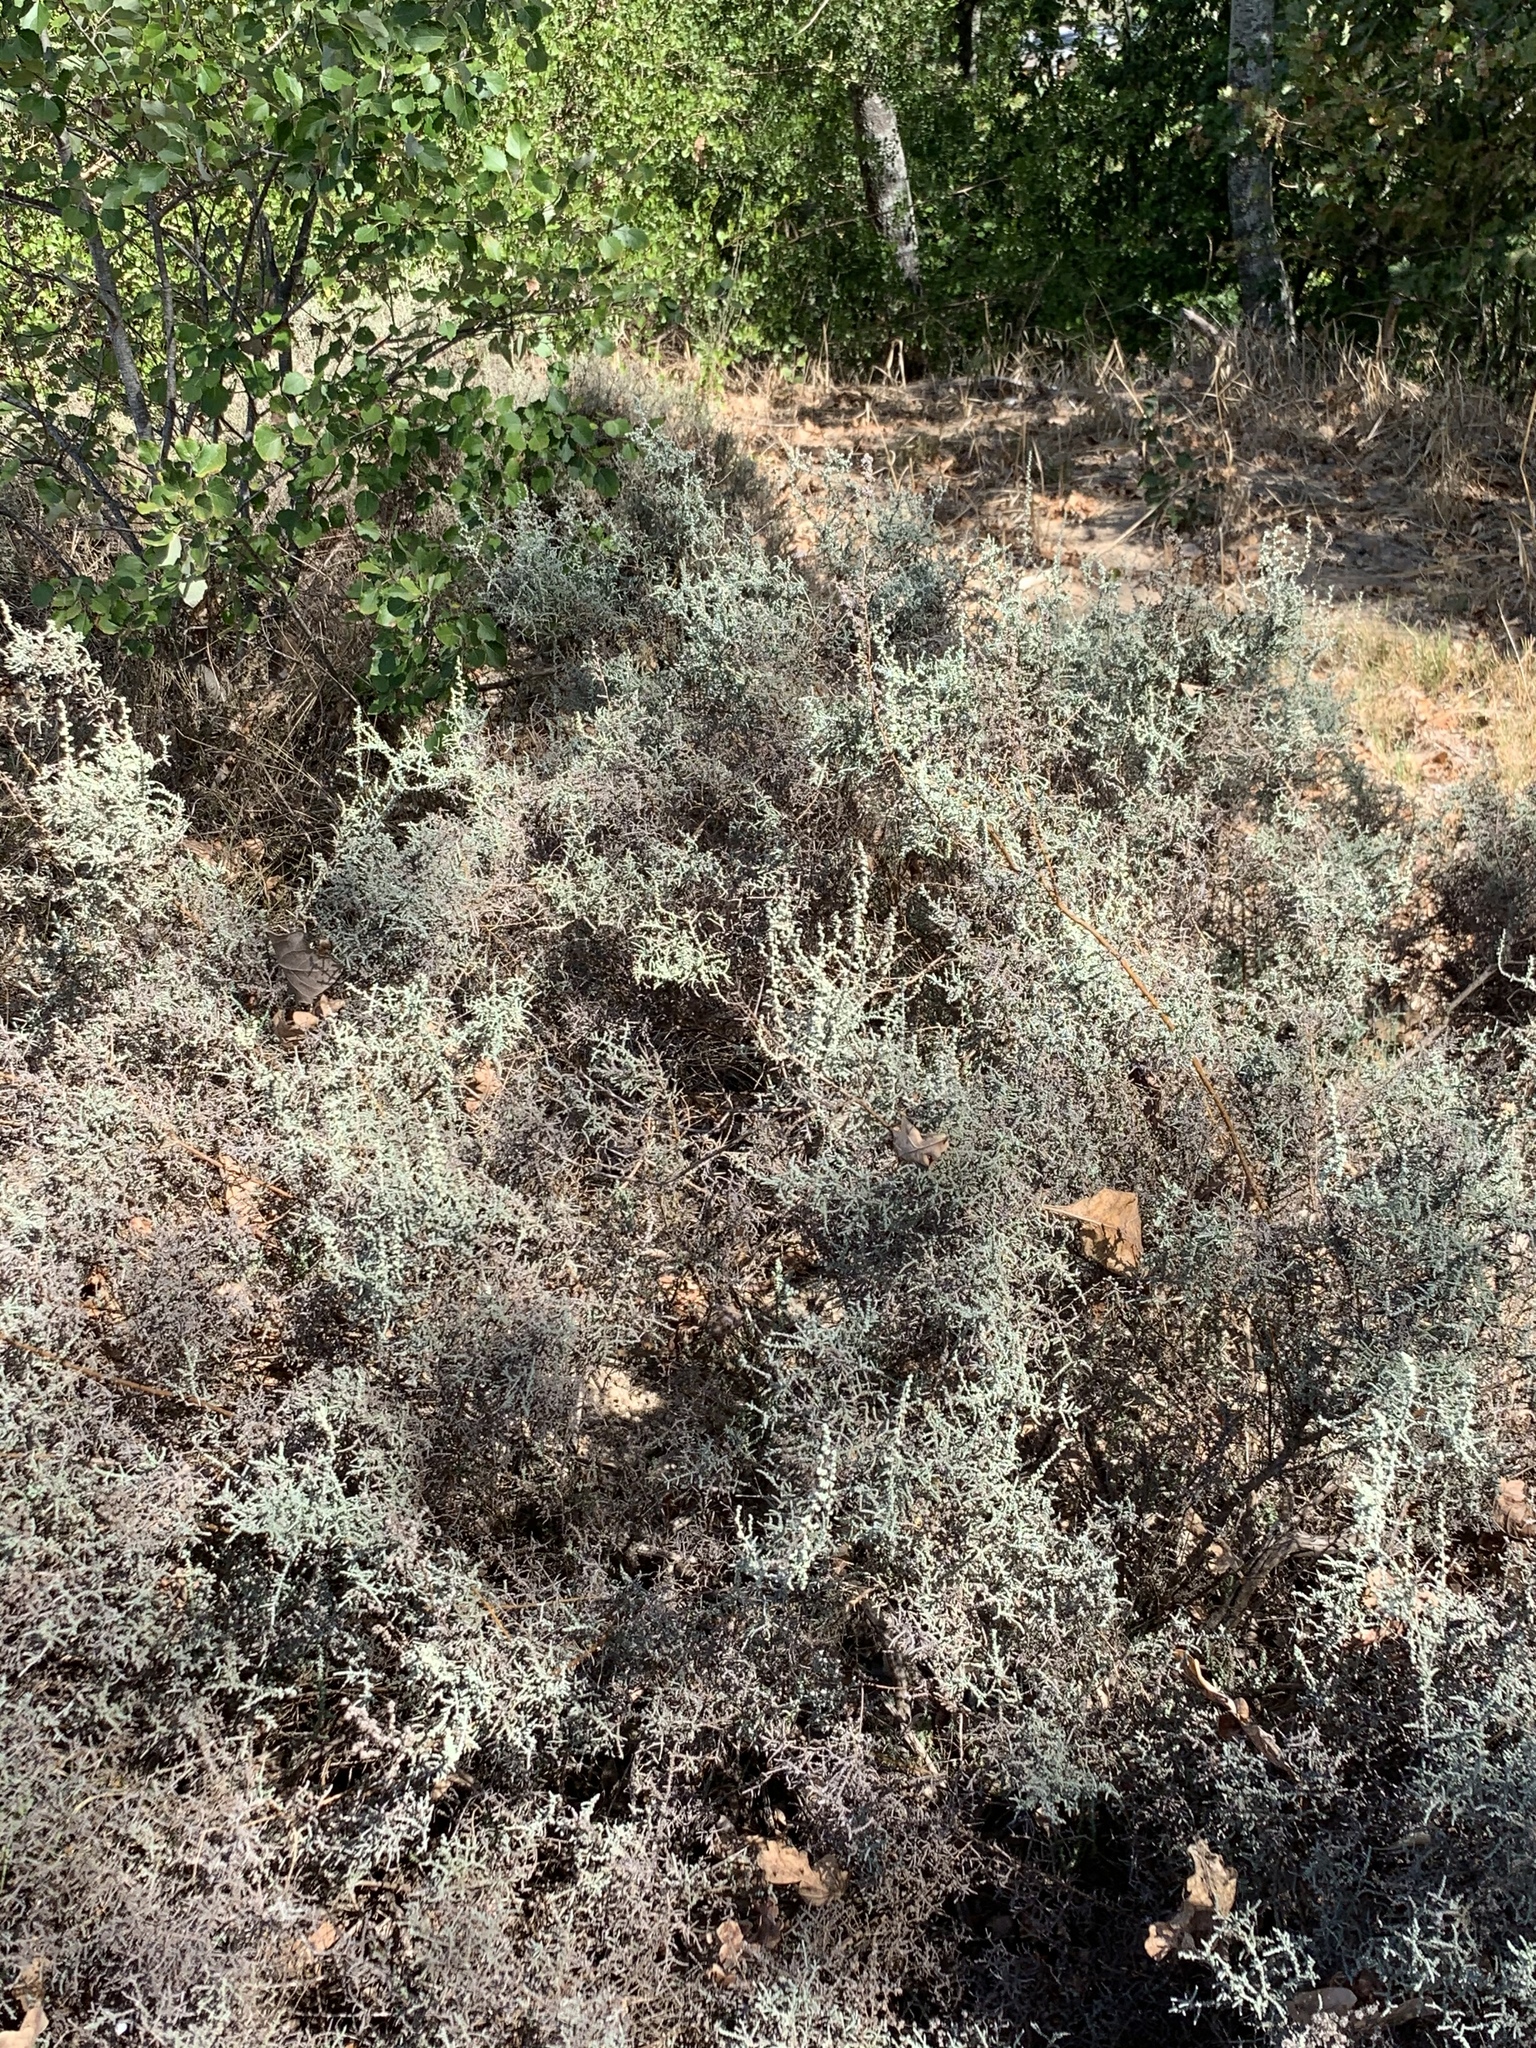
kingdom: Plantae
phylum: Tracheophyta
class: Magnoliopsida
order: Asterales
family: Asteraceae
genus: Seriphium
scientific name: Seriphium plumosum
